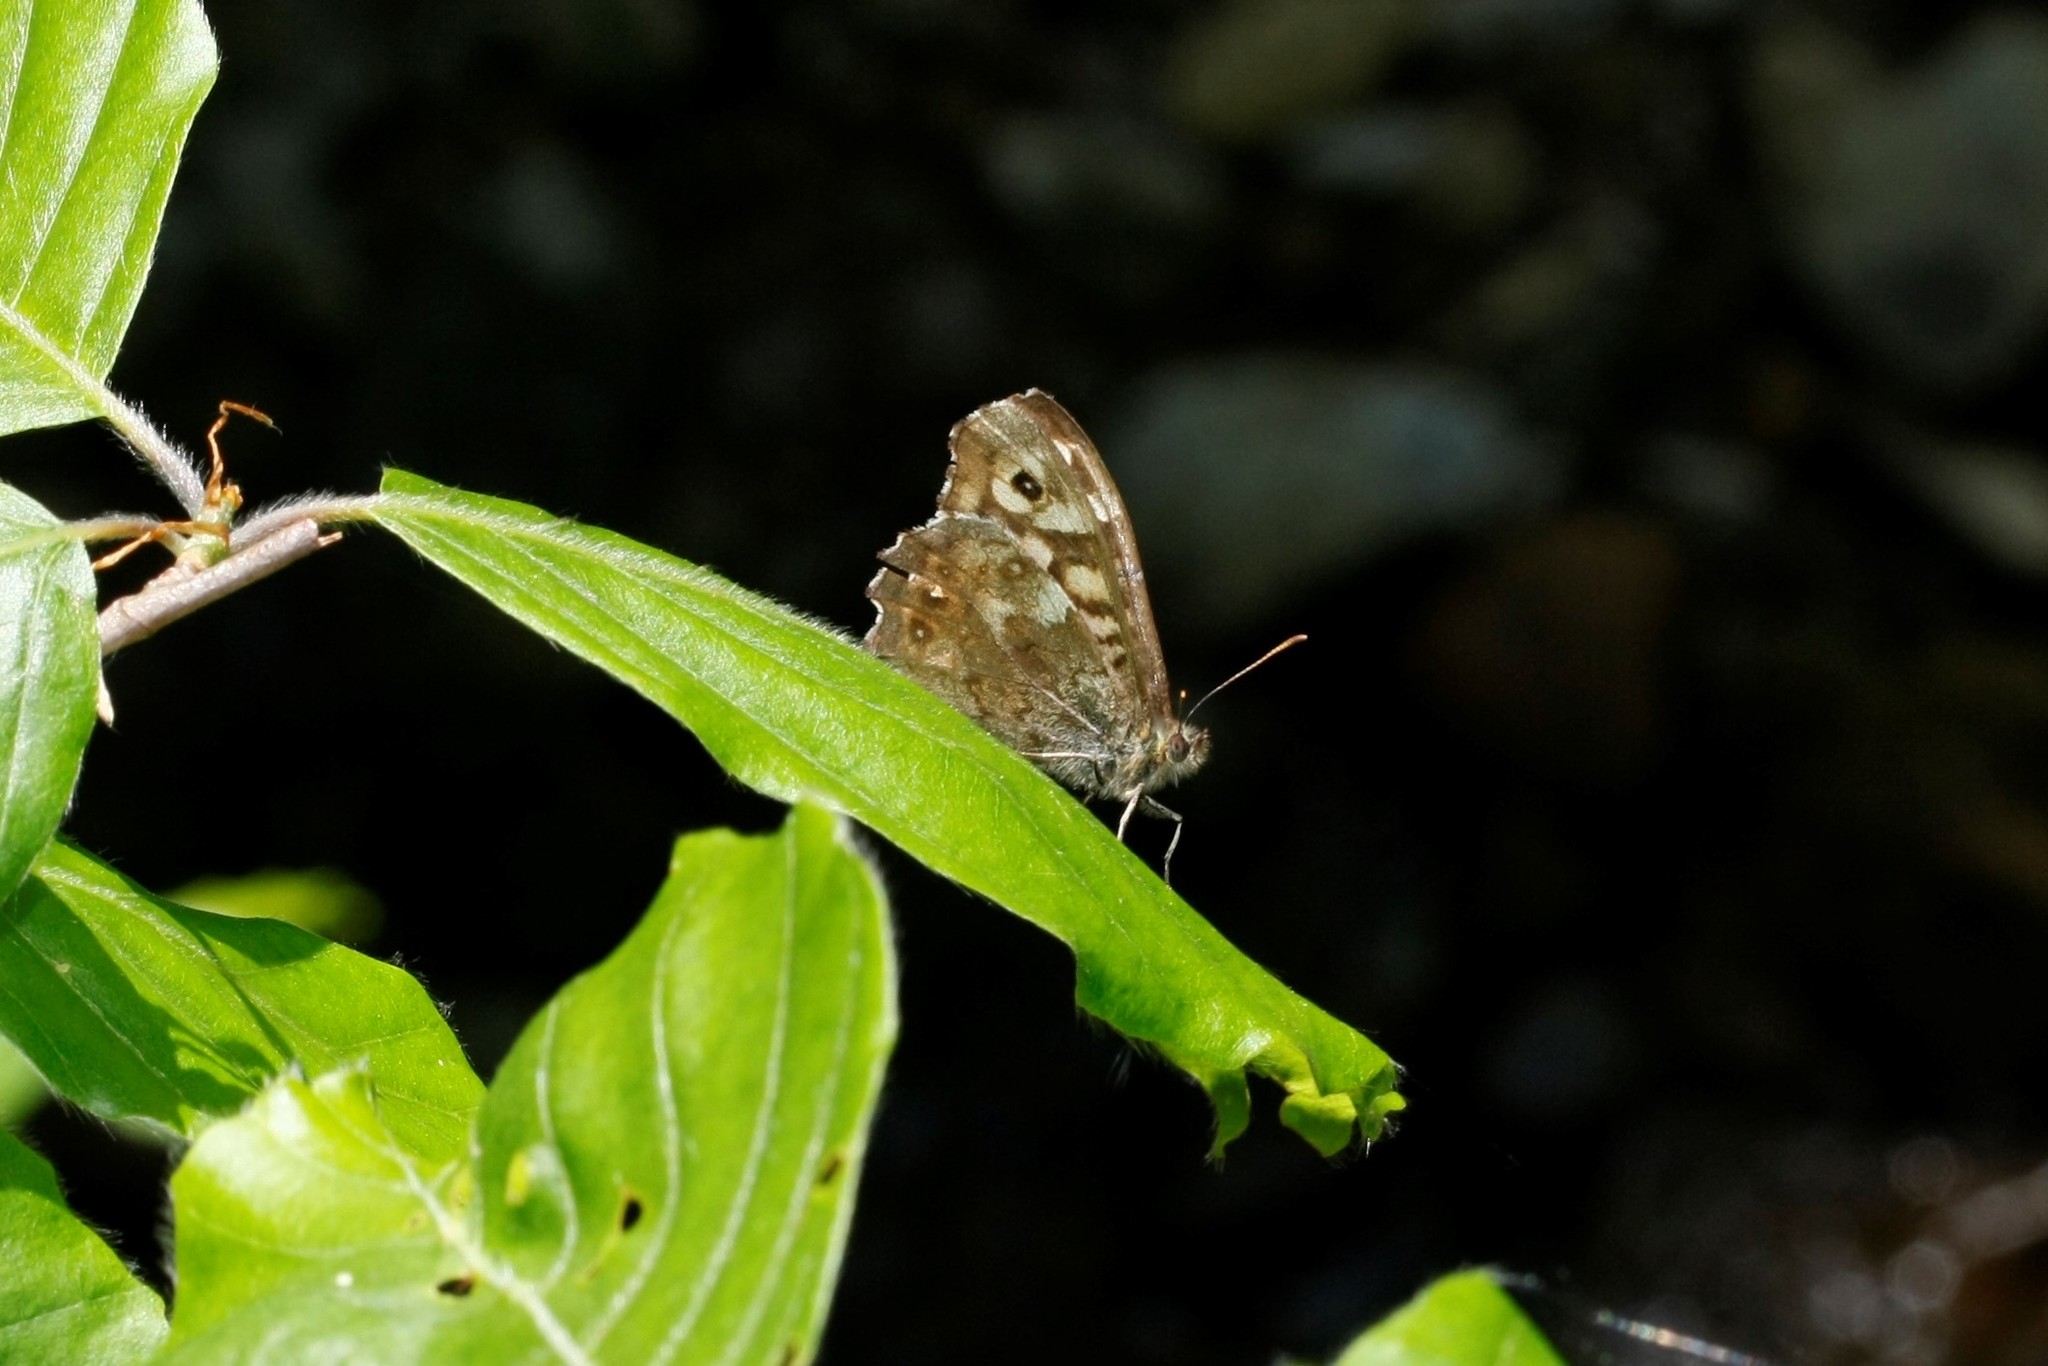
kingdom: Animalia
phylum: Arthropoda
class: Insecta
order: Lepidoptera
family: Nymphalidae
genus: Pararge
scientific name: Pararge aegeria
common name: Speckled wood
